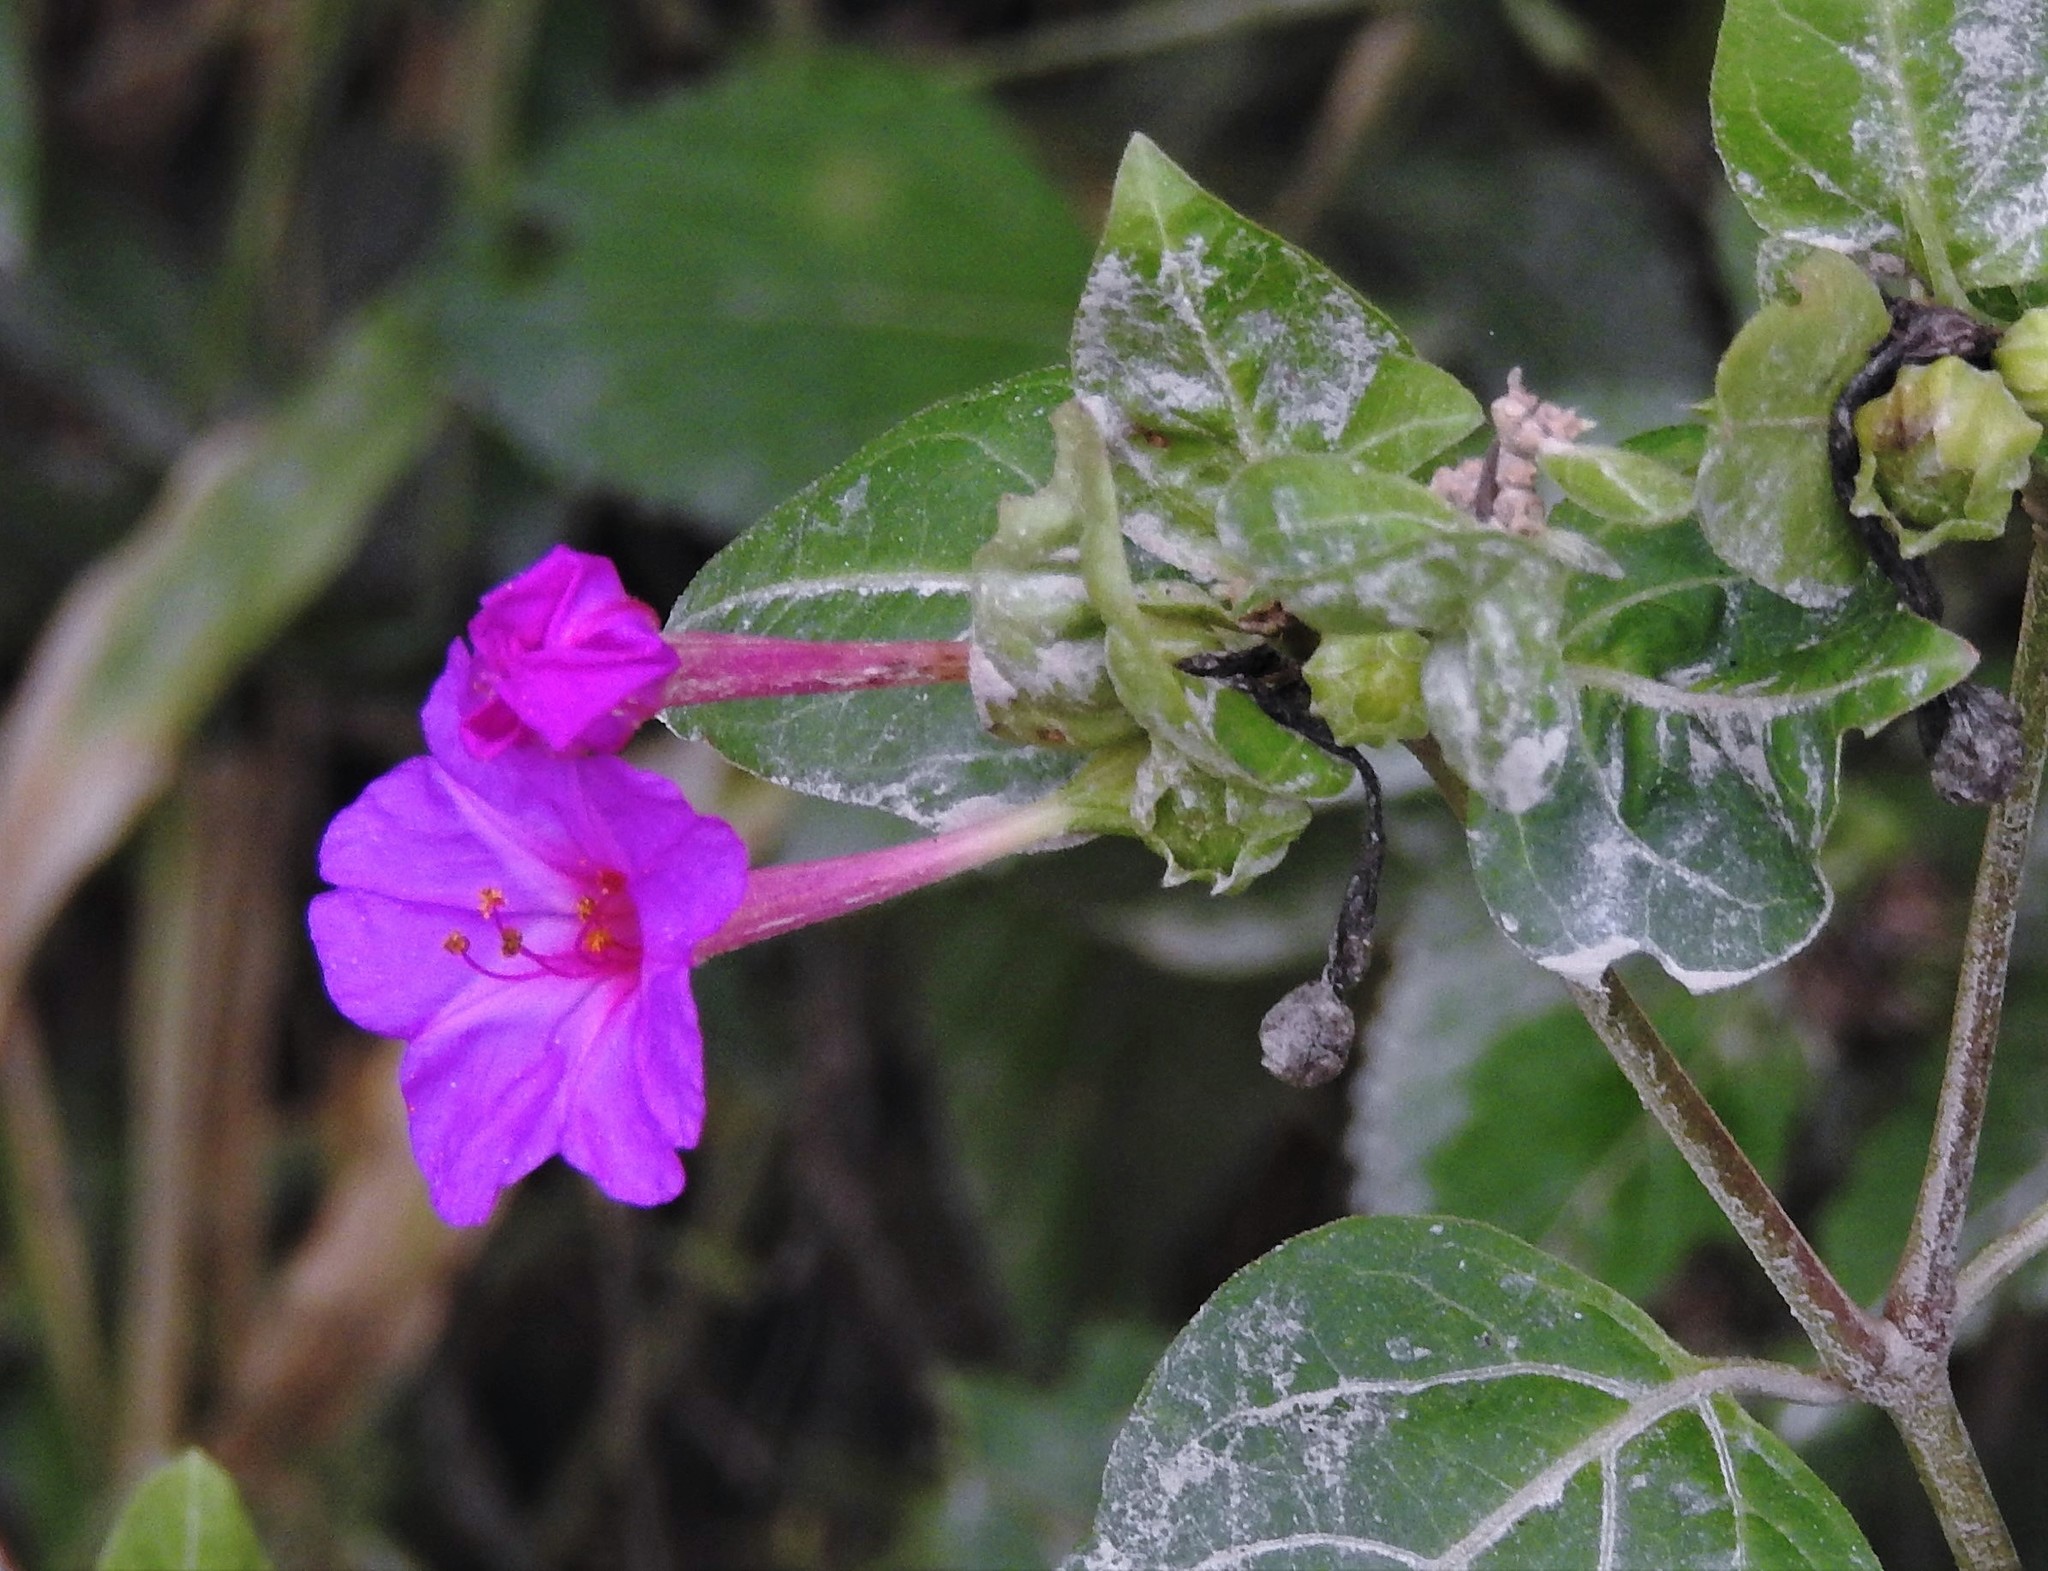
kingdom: Plantae
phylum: Tracheophyta
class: Magnoliopsida
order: Caryophyllales
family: Nyctaginaceae
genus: Mirabilis
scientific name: Mirabilis jalapa
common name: Marvel-of-peru
